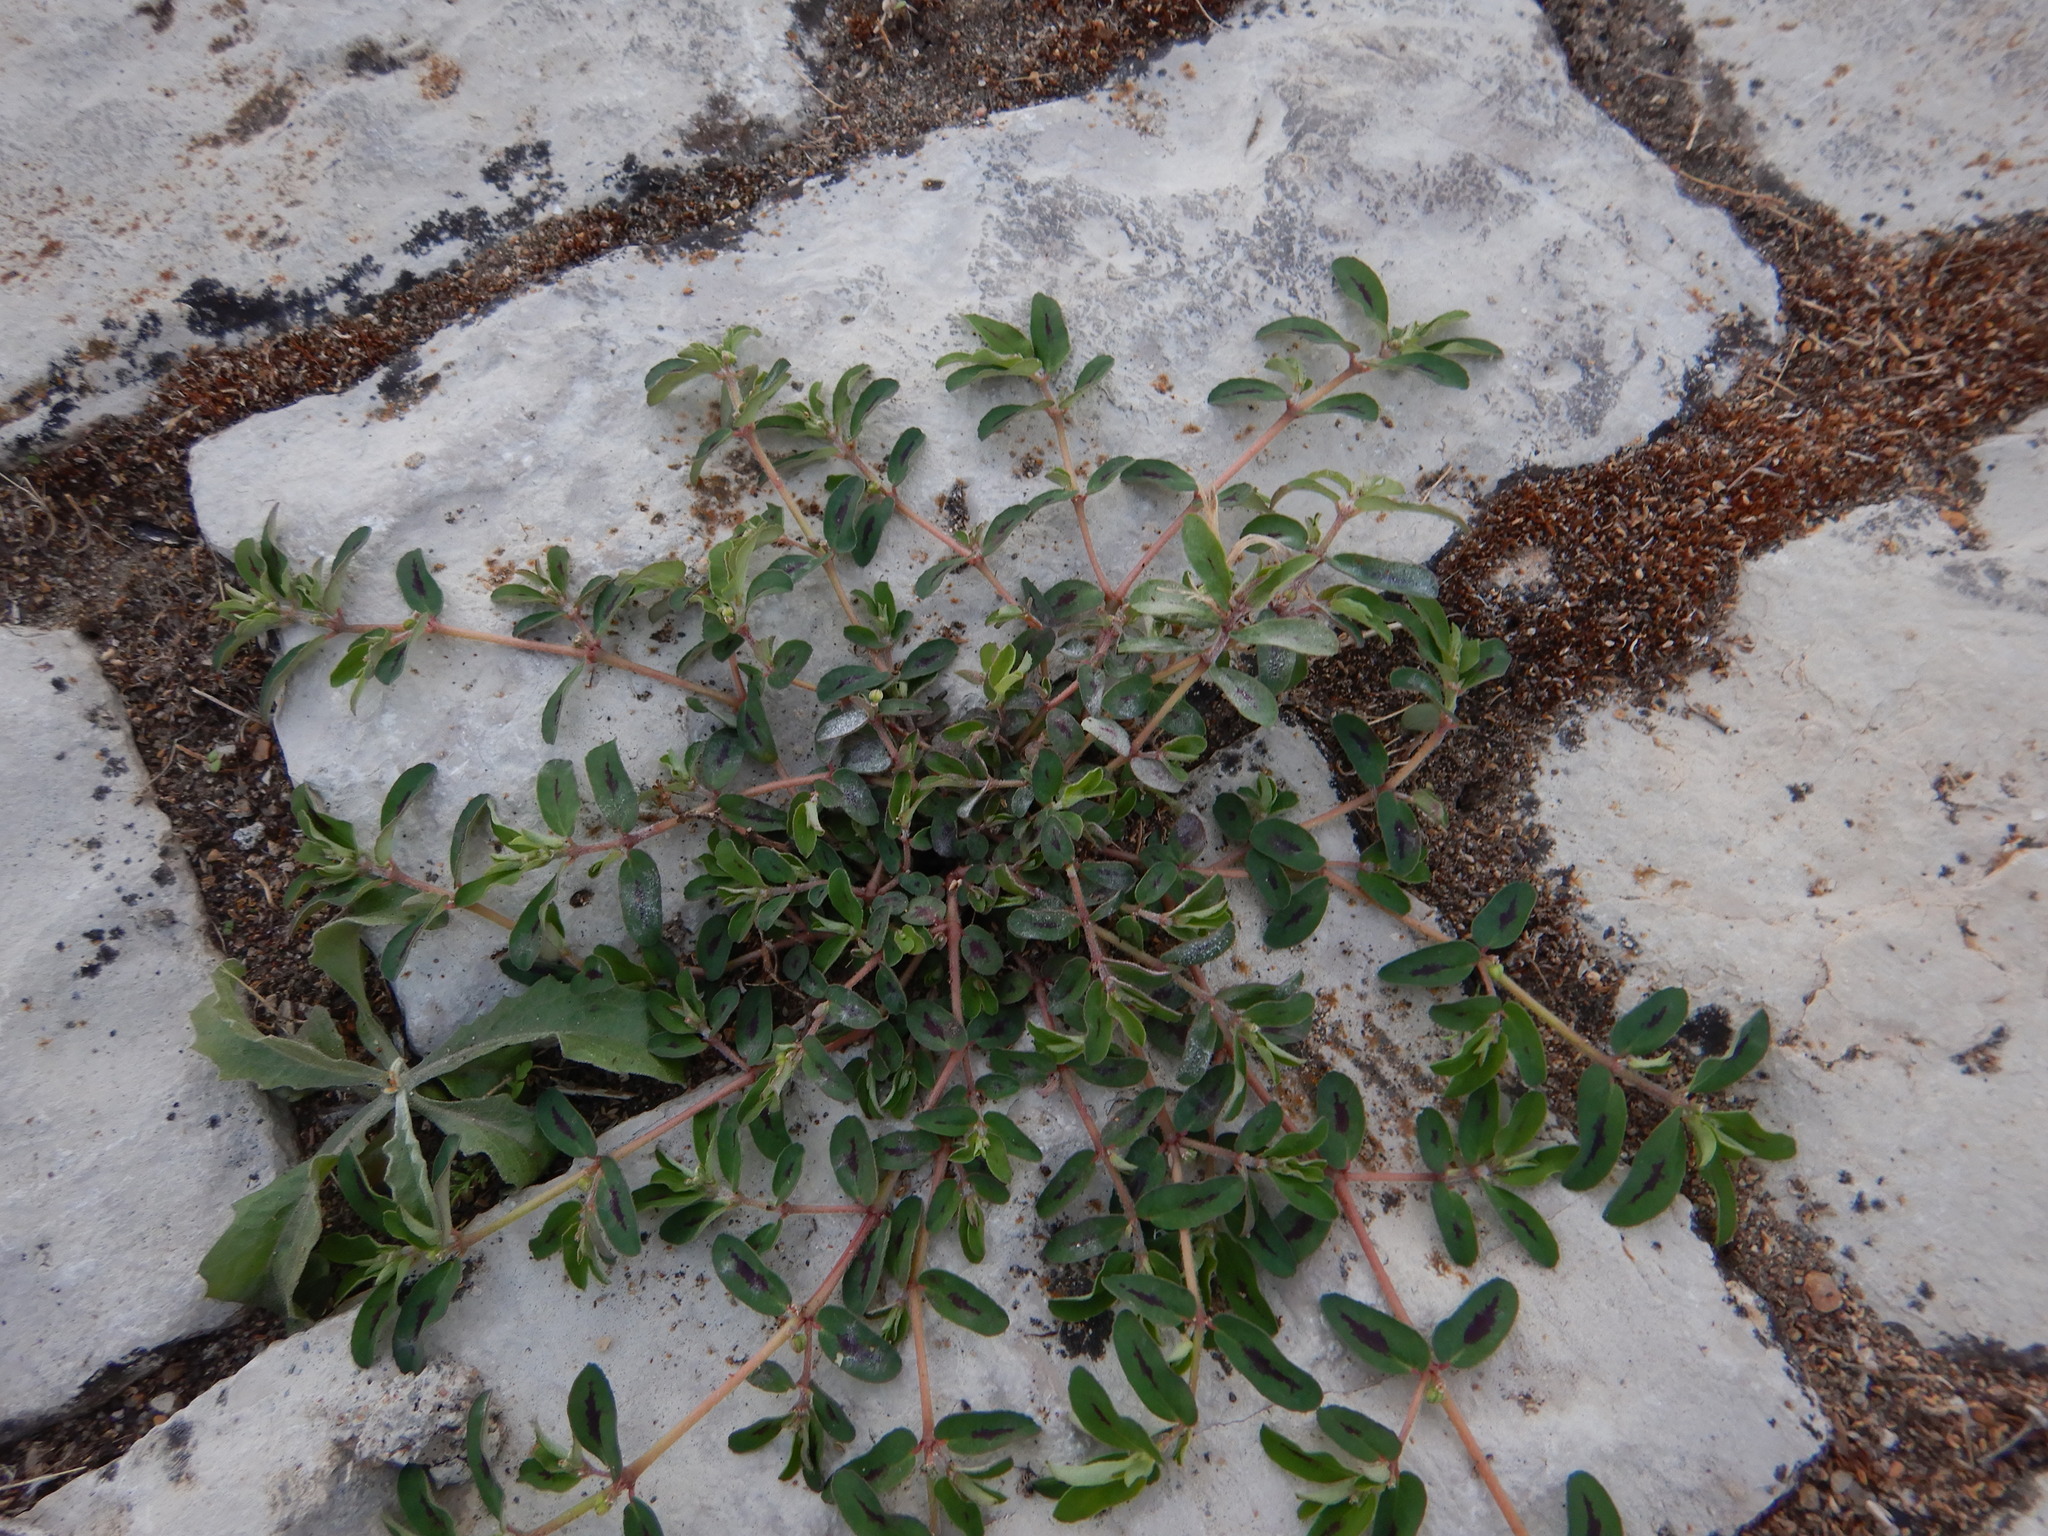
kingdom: Plantae
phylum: Tracheophyta
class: Magnoliopsida
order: Malpighiales
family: Euphorbiaceae
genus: Euphorbia
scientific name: Euphorbia maculata
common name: Spotted spurge
